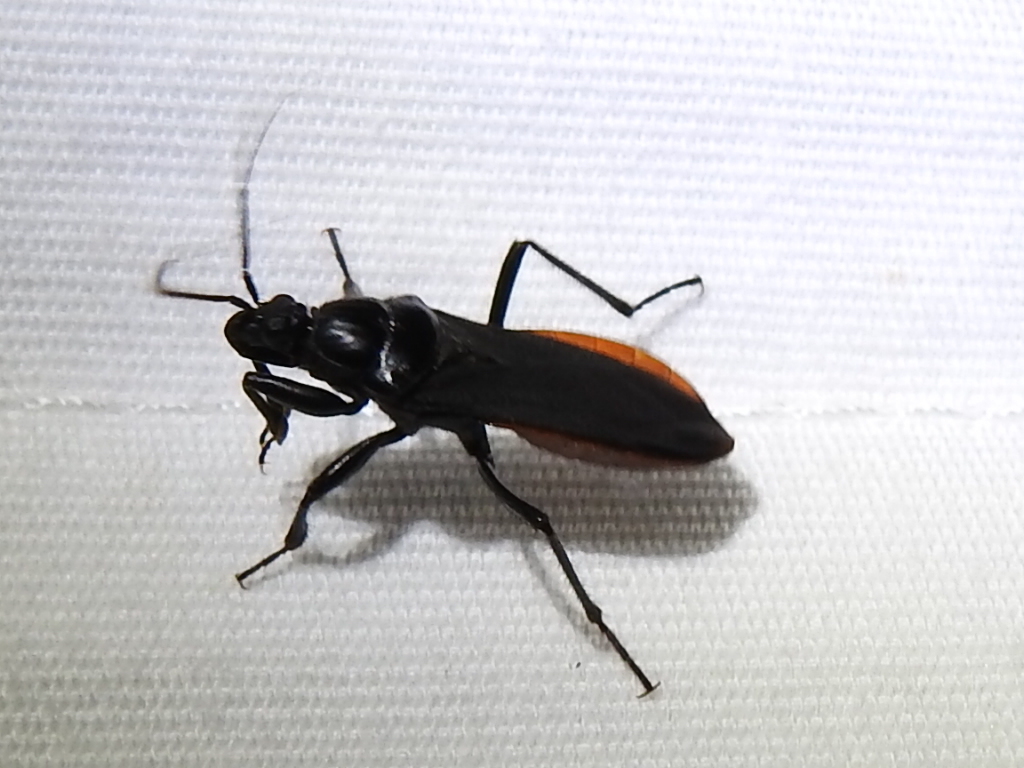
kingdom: Animalia
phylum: Arthropoda
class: Insecta
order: Hemiptera
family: Reduviidae
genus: Melanolestes
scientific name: Melanolestes picipes
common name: Assassin bug
